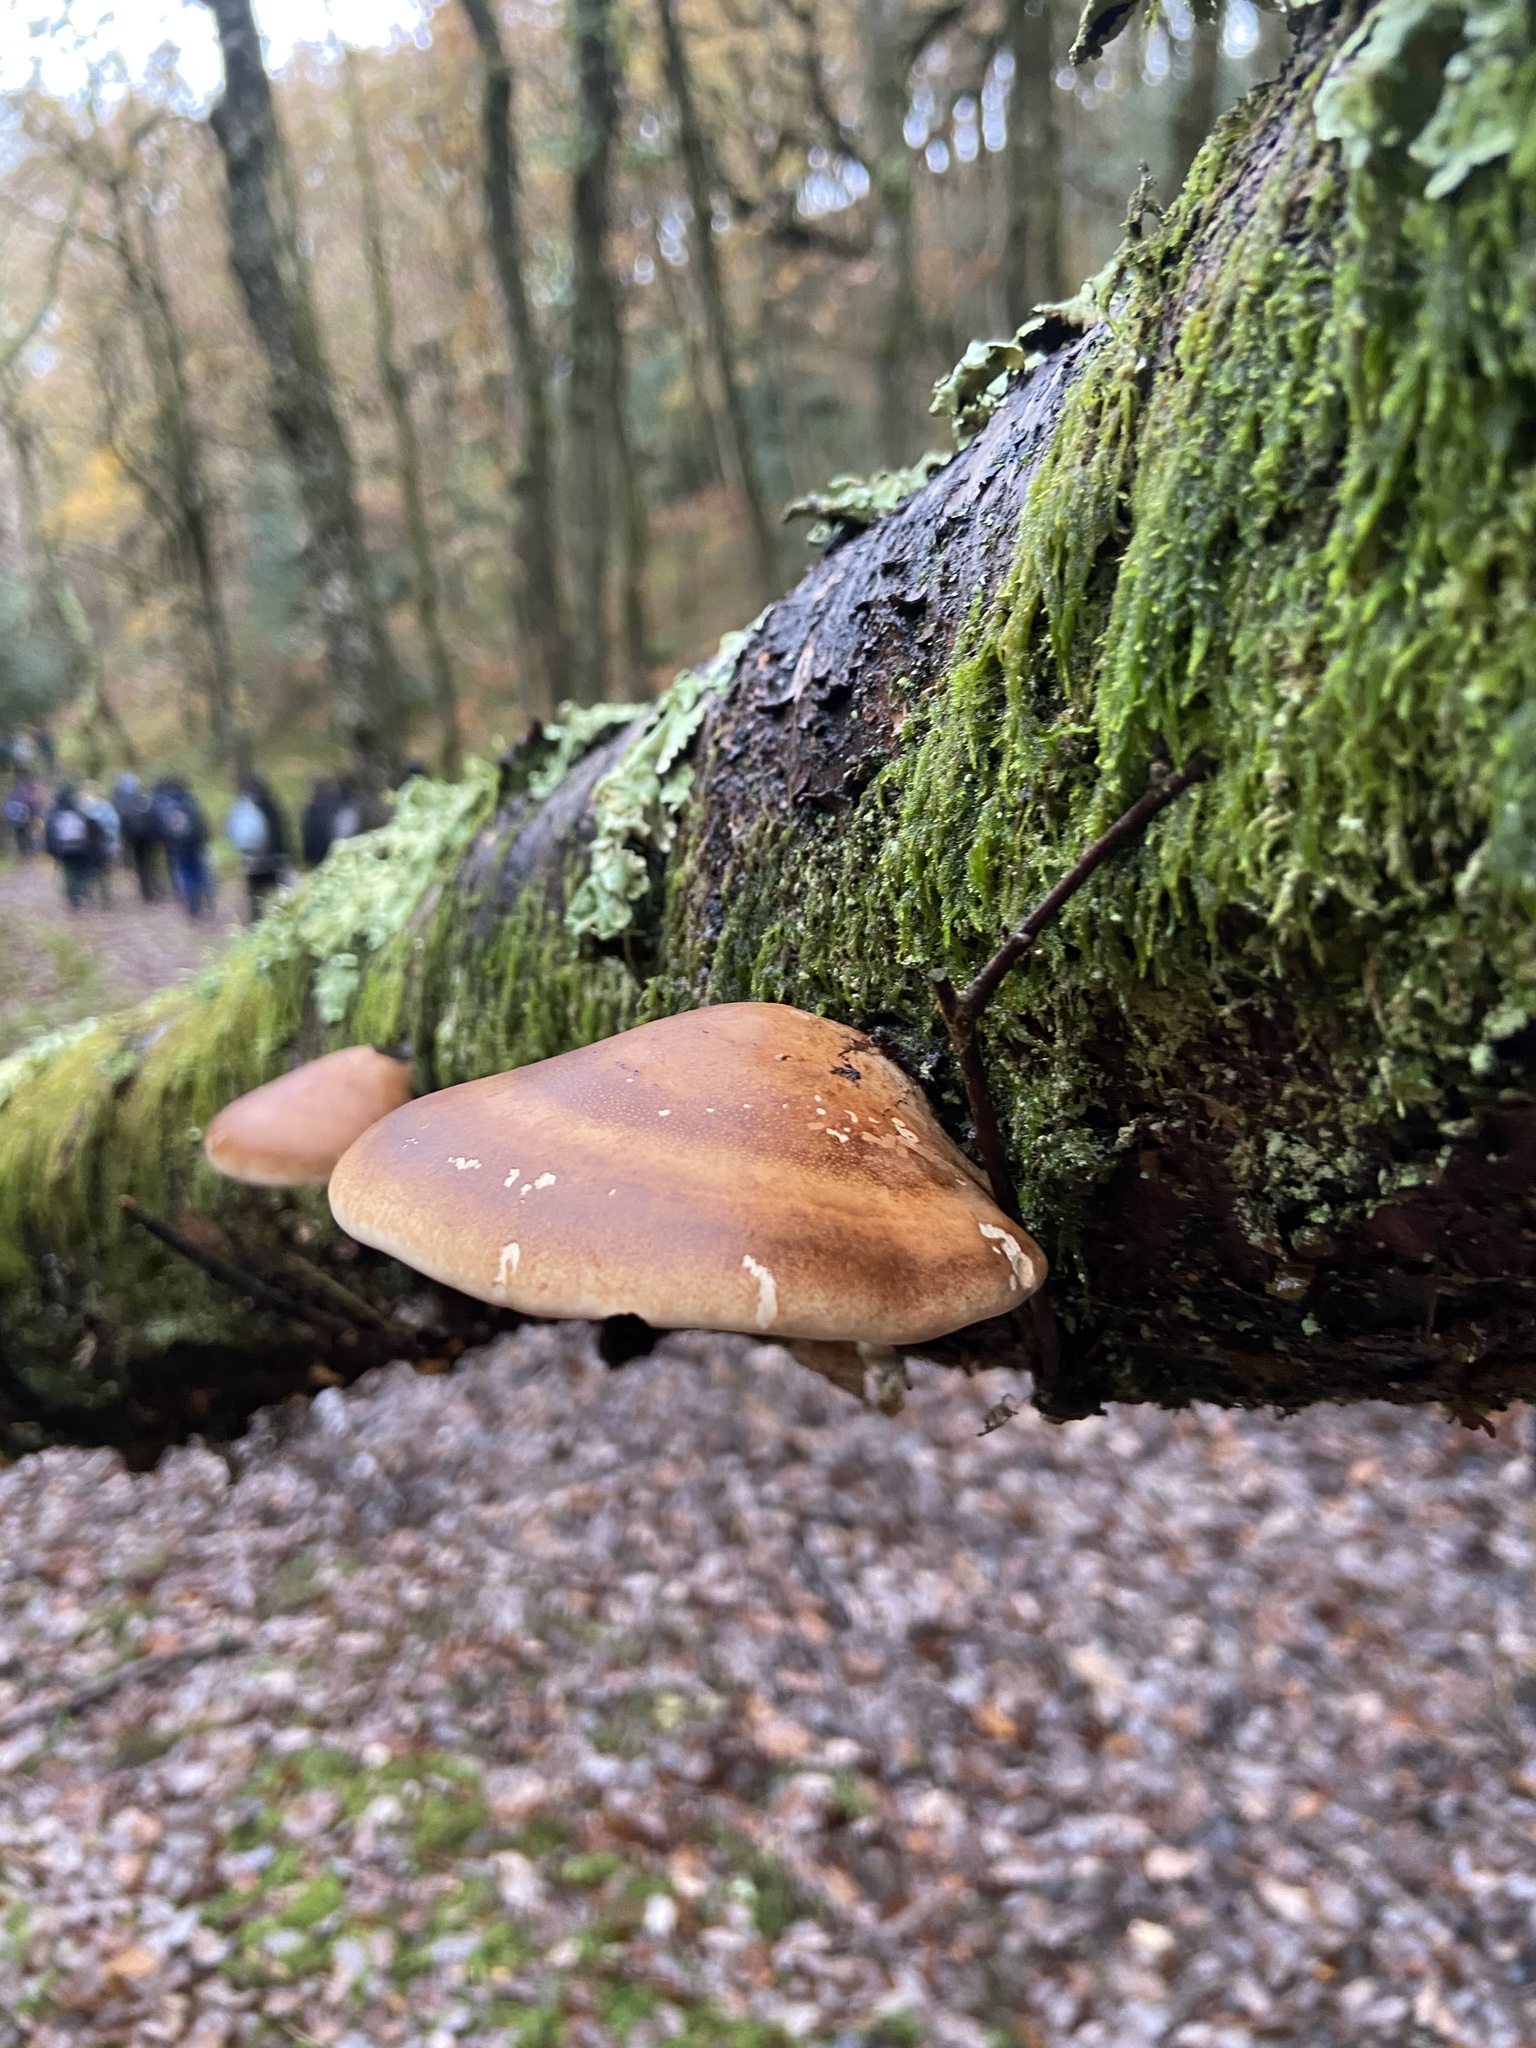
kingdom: Fungi
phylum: Basidiomycota
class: Agaricomycetes
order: Polyporales
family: Fomitopsidaceae
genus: Fomitopsis
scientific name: Fomitopsis betulina
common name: Birch polypore
